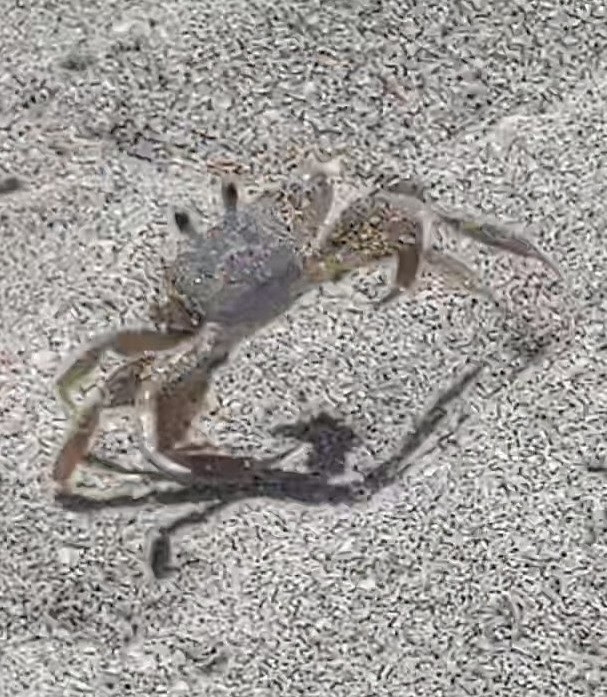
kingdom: Animalia
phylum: Arthropoda
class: Malacostraca
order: Decapoda
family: Ocypodidae
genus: Ocypode
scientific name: Ocypode quadrata
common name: Ghost crab
